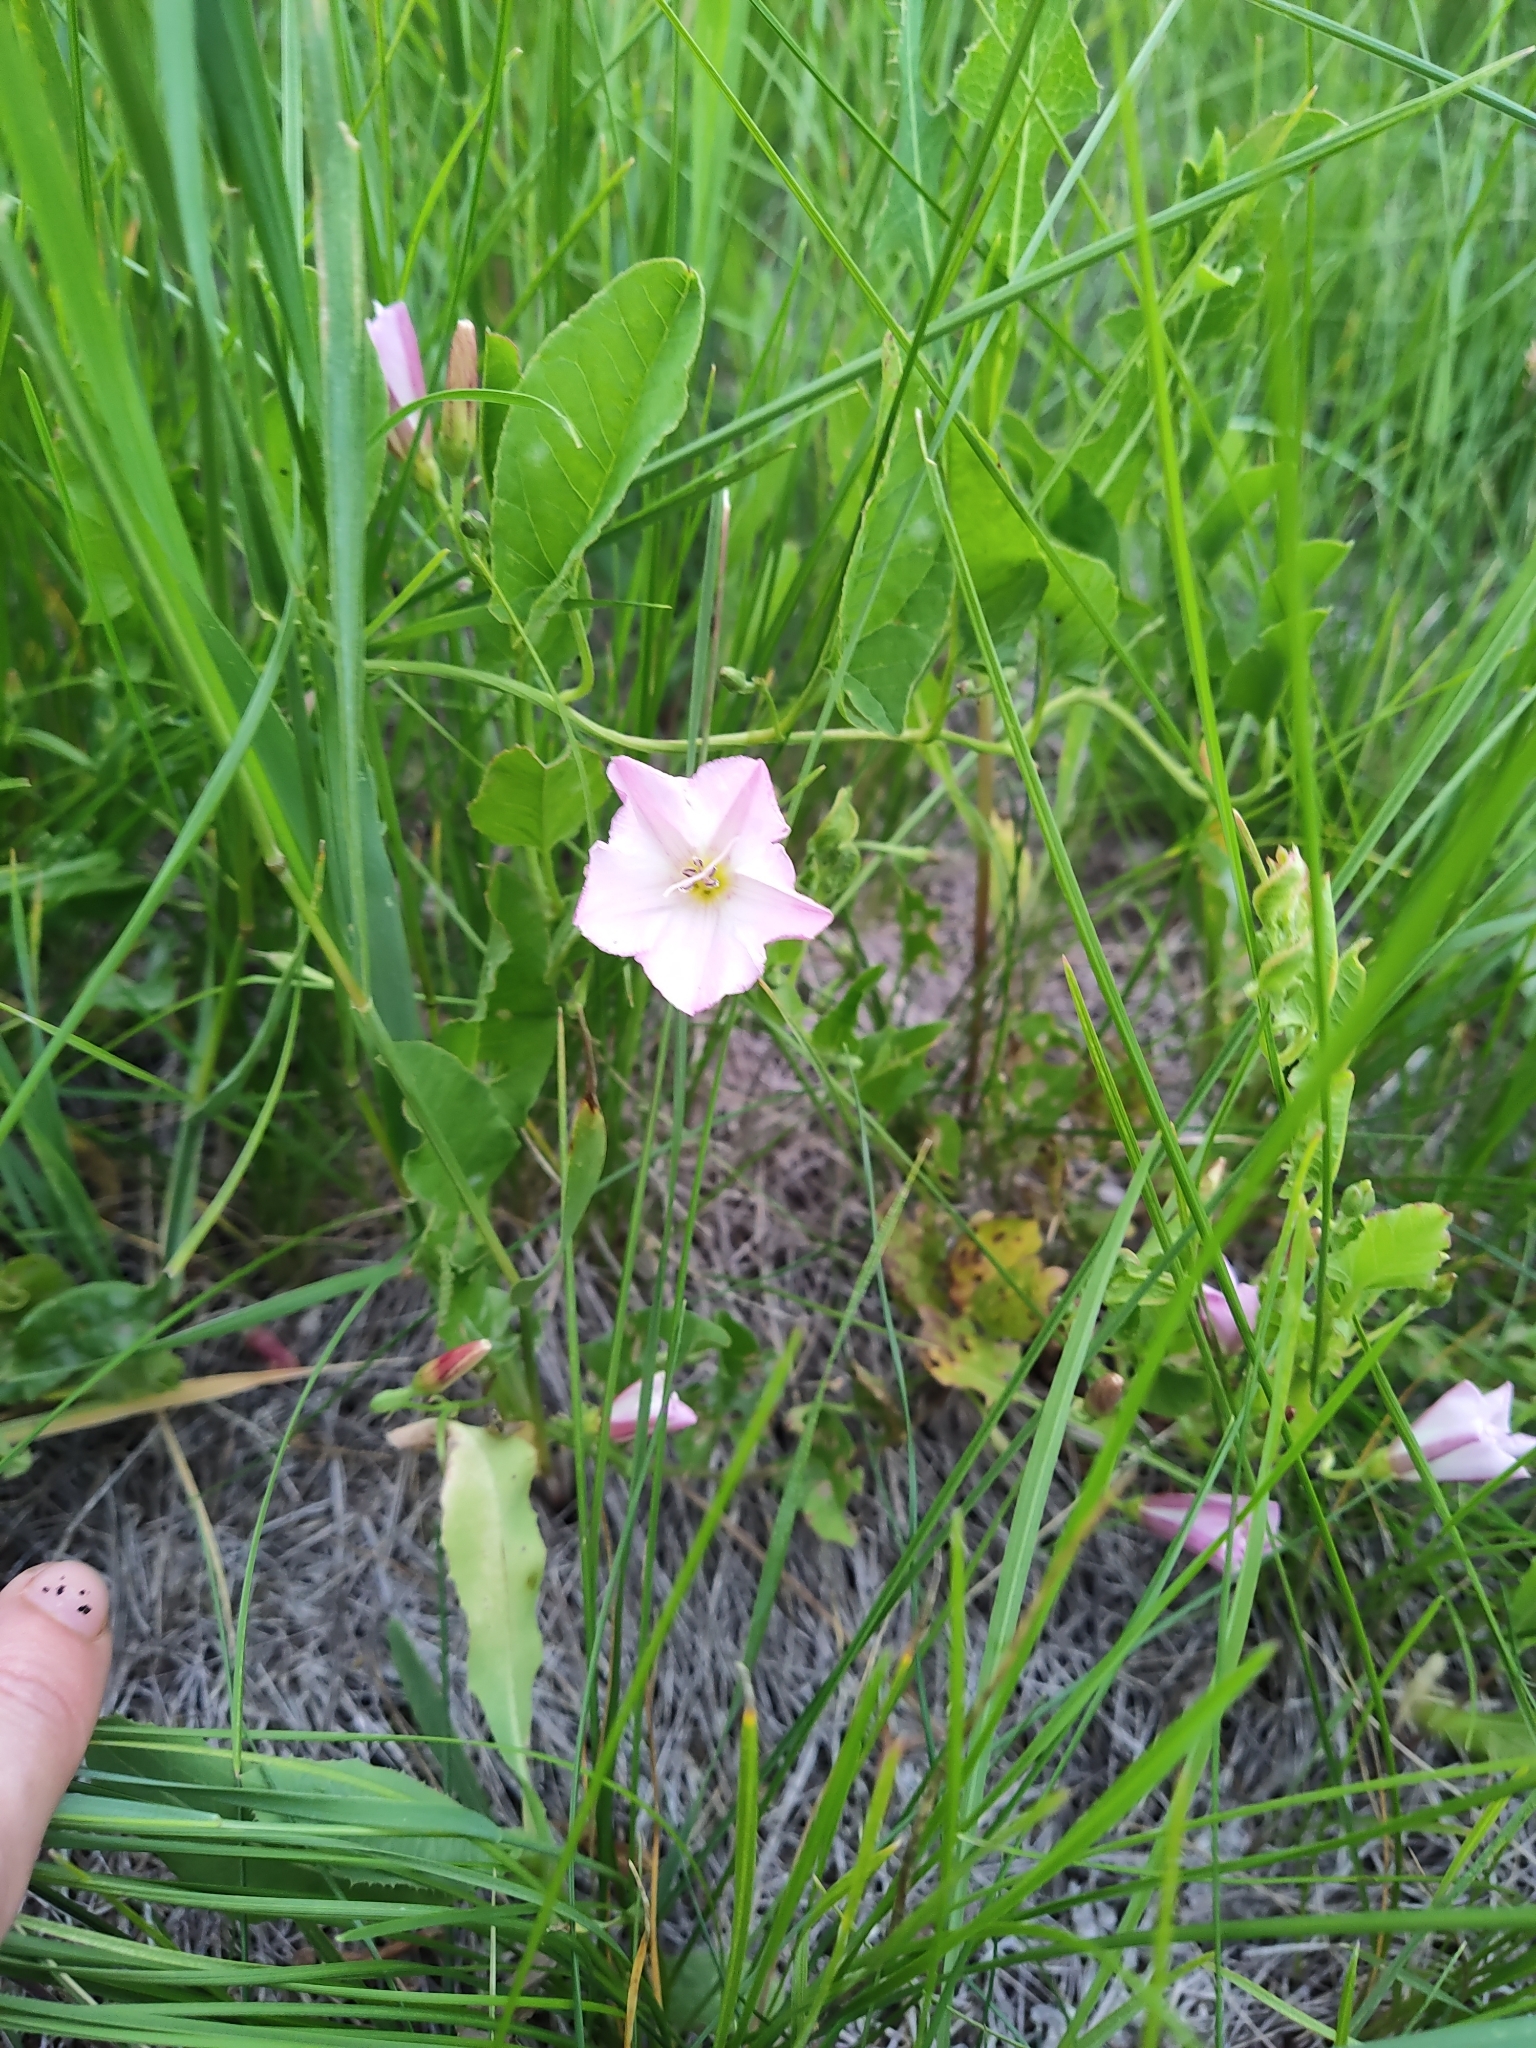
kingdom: Plantae
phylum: Tracheophyta
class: Magnoliopsida
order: Solanales
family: Convolvulaceae
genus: Convolvulus
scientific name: Convolvulus arvensis
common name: Field bindweed
